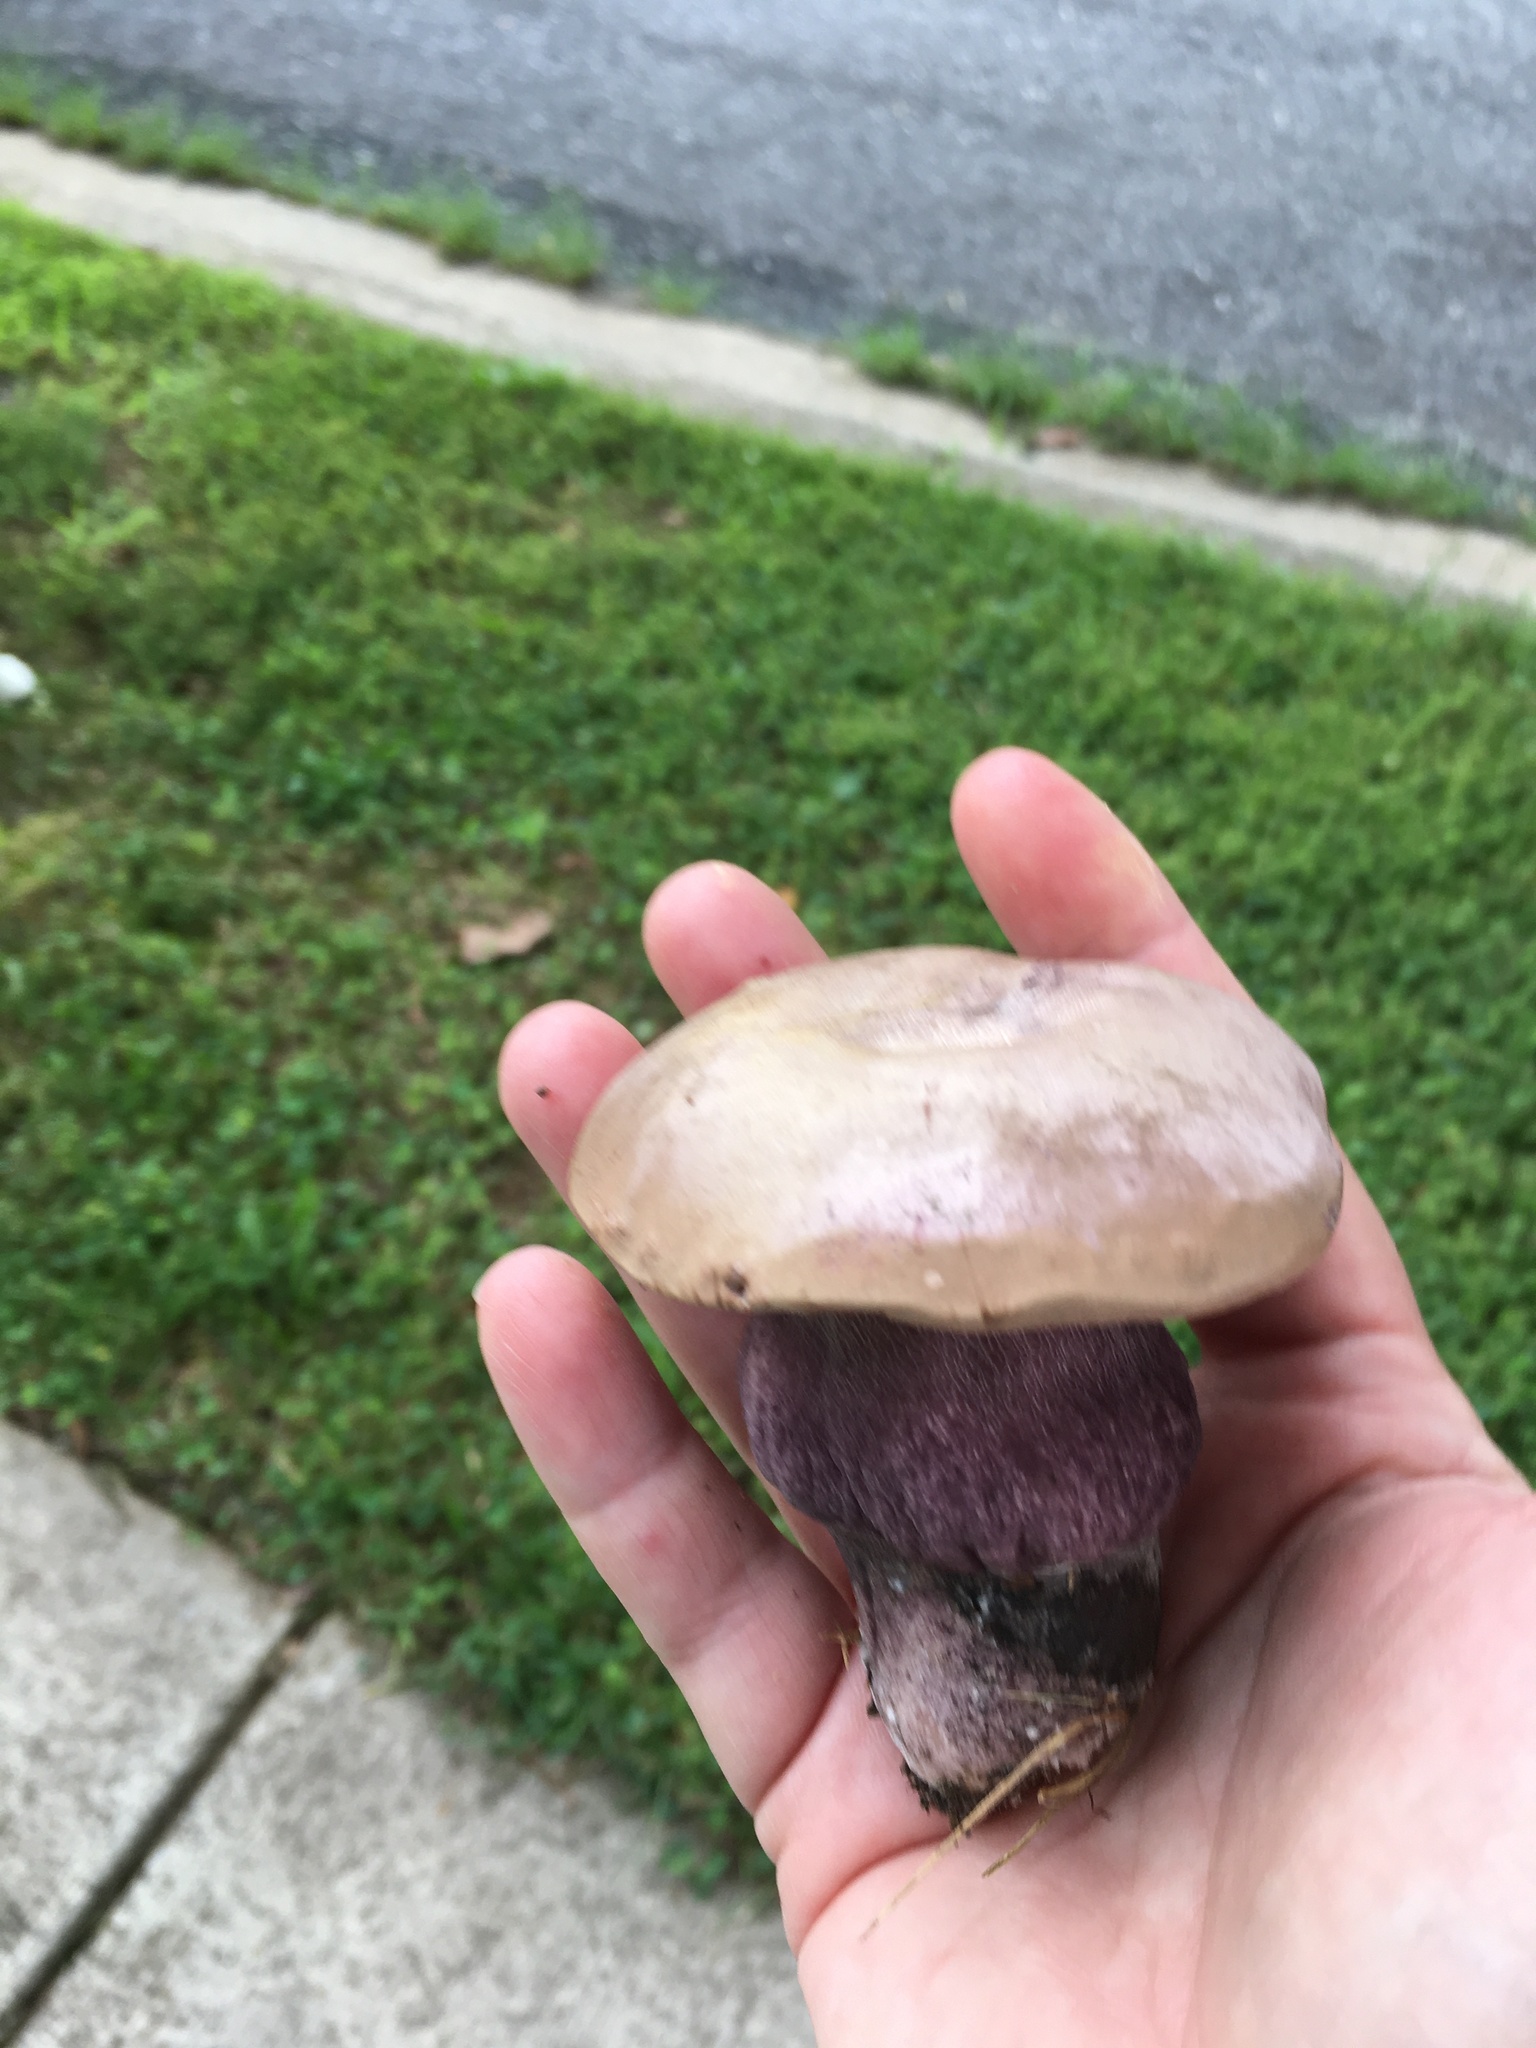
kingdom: Fungi
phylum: Basidiomycota
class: Agaricomycetes
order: Boletales
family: Boletaceae
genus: Tylopilus
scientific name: Tylopilus plumbeoviolaceus
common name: Violet gray bolete
